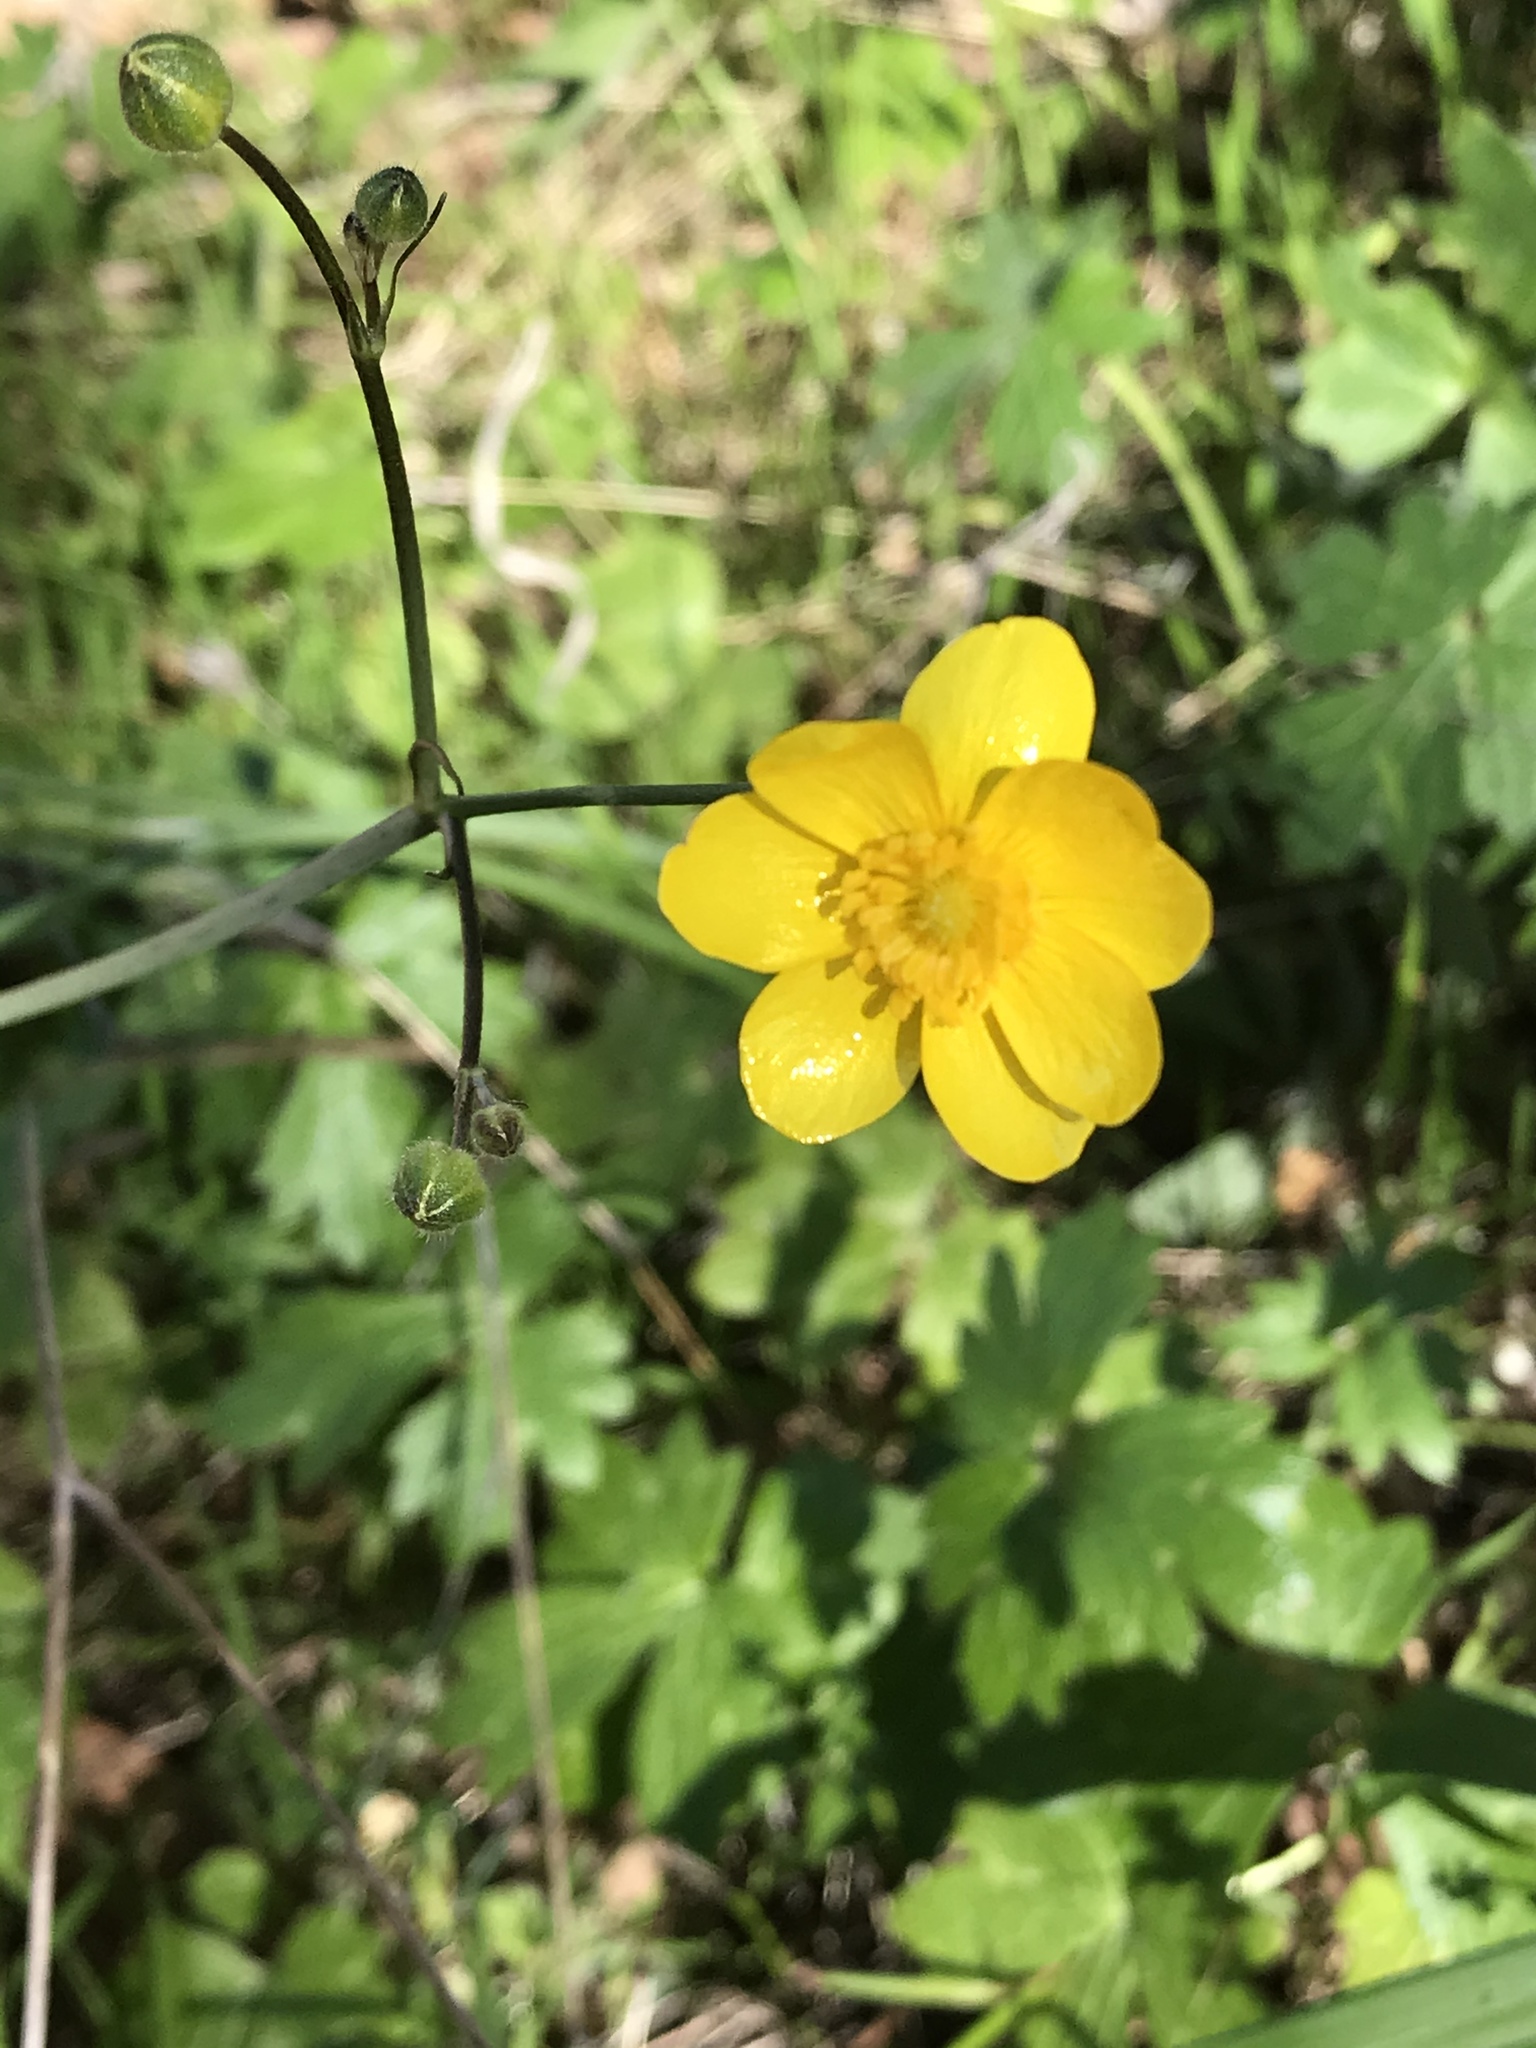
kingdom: Plantae
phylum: Tracheophyta
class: Magnoliopsida
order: Ranunculales
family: Ranunculaceae
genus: Ranunculus
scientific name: Ranunculus californicus
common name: California buttercup
